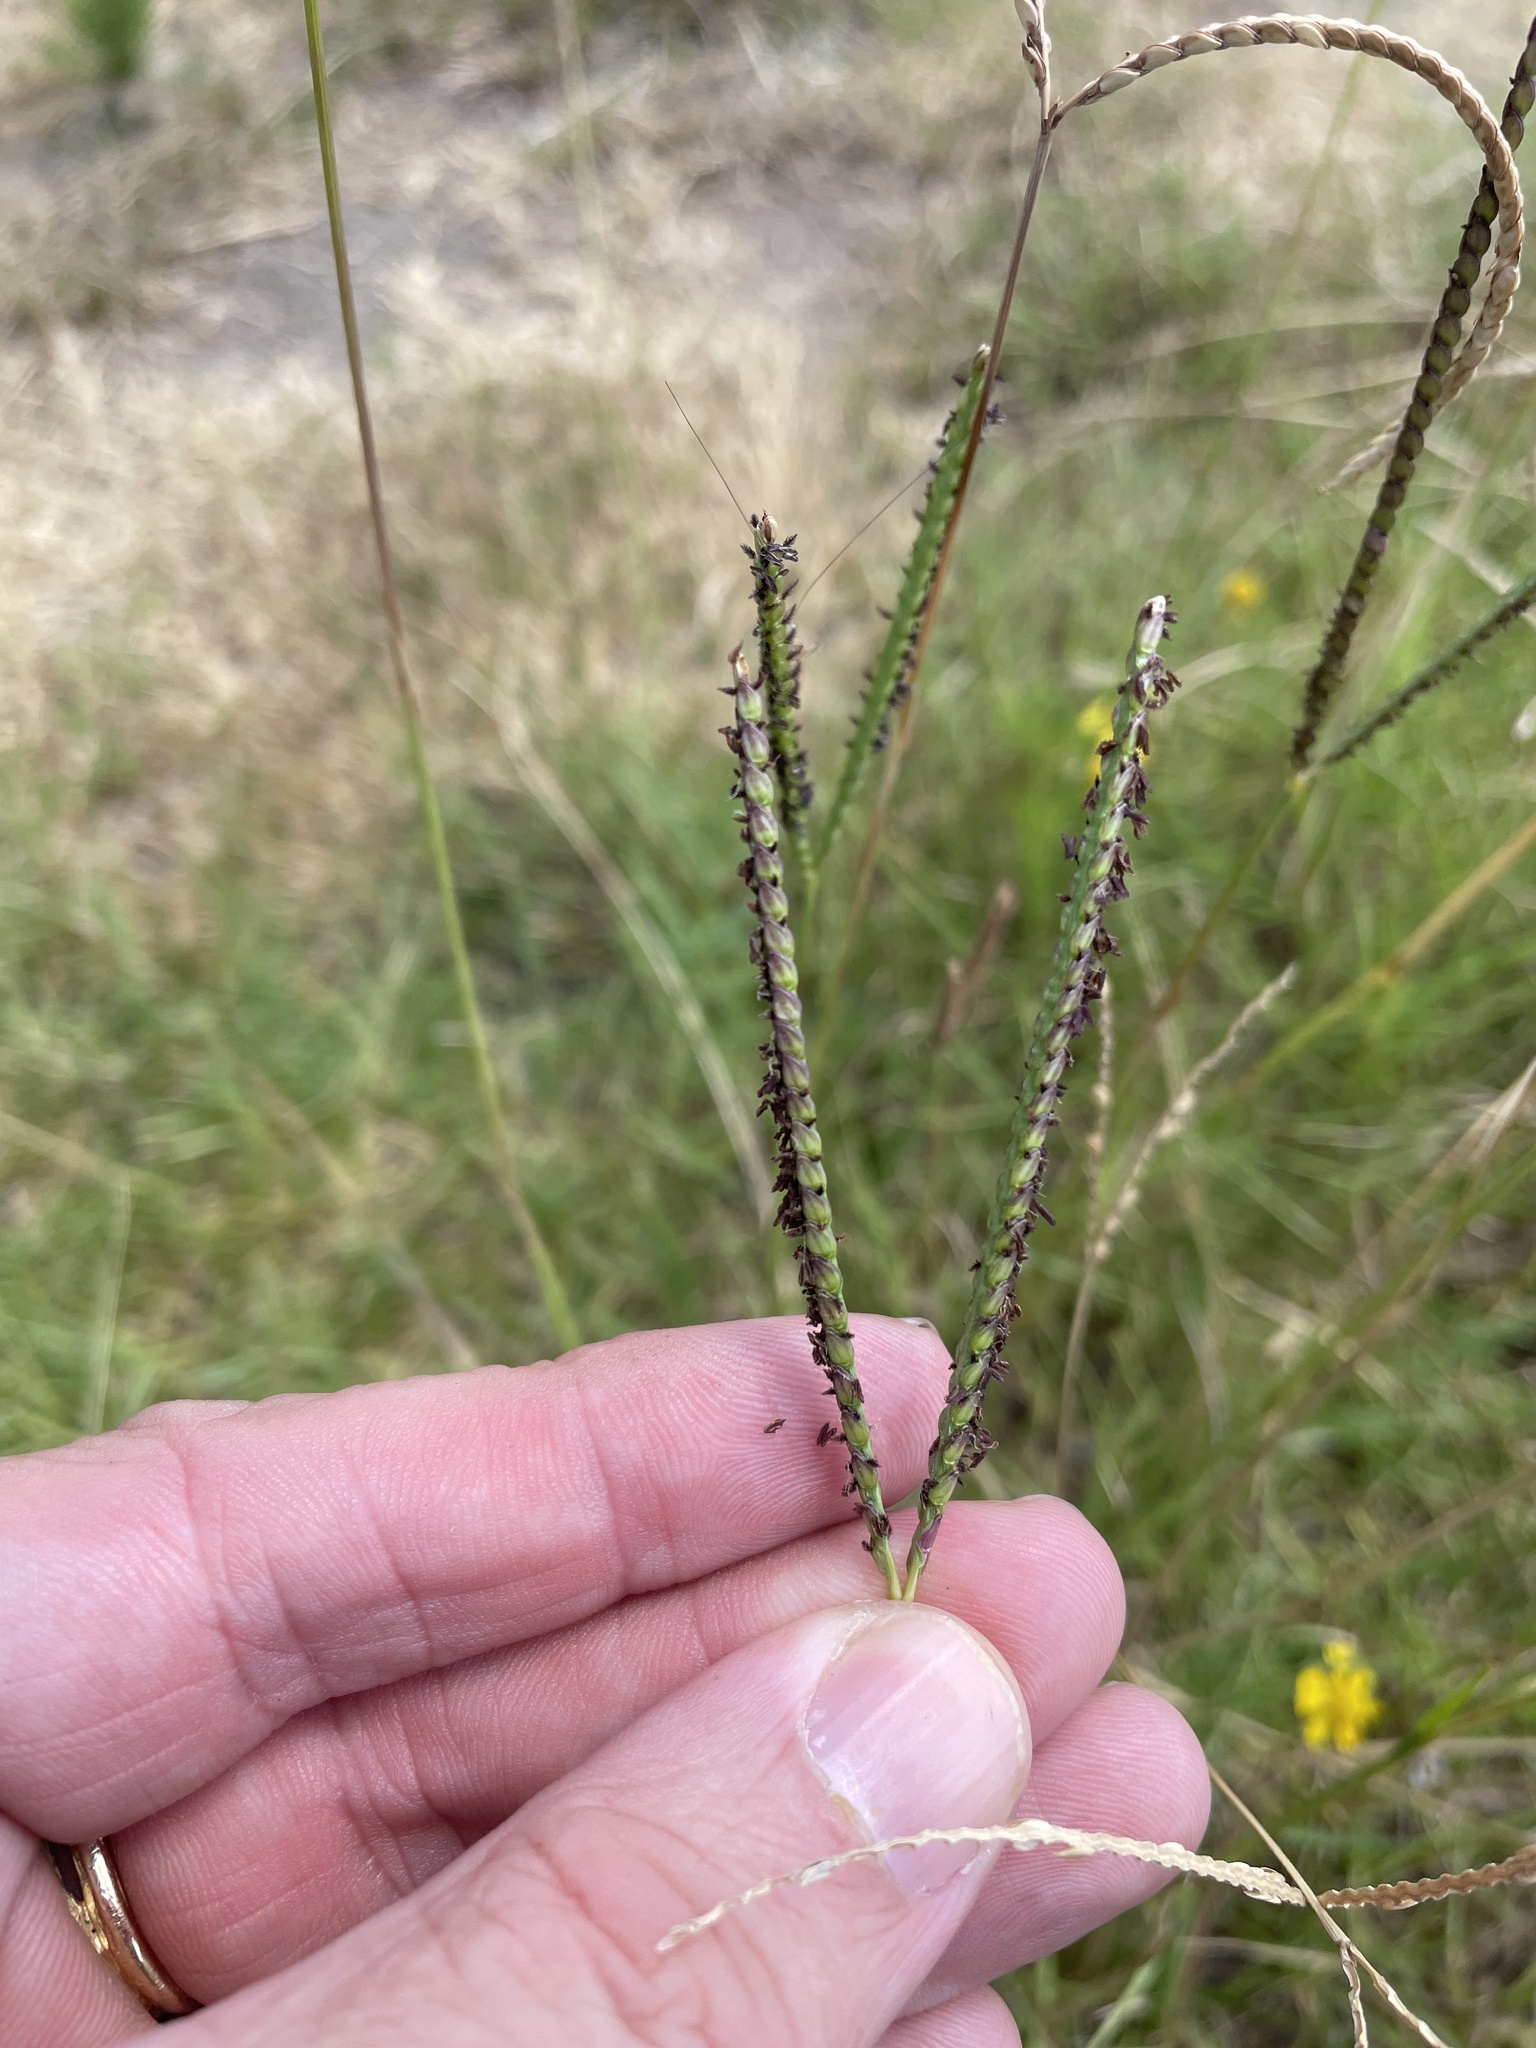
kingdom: Plantae
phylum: Tracheophyta
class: Liliopsida
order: Poales
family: Poaceae
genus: Paspalum
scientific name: Paspalum notatum
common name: Bahiagrass
